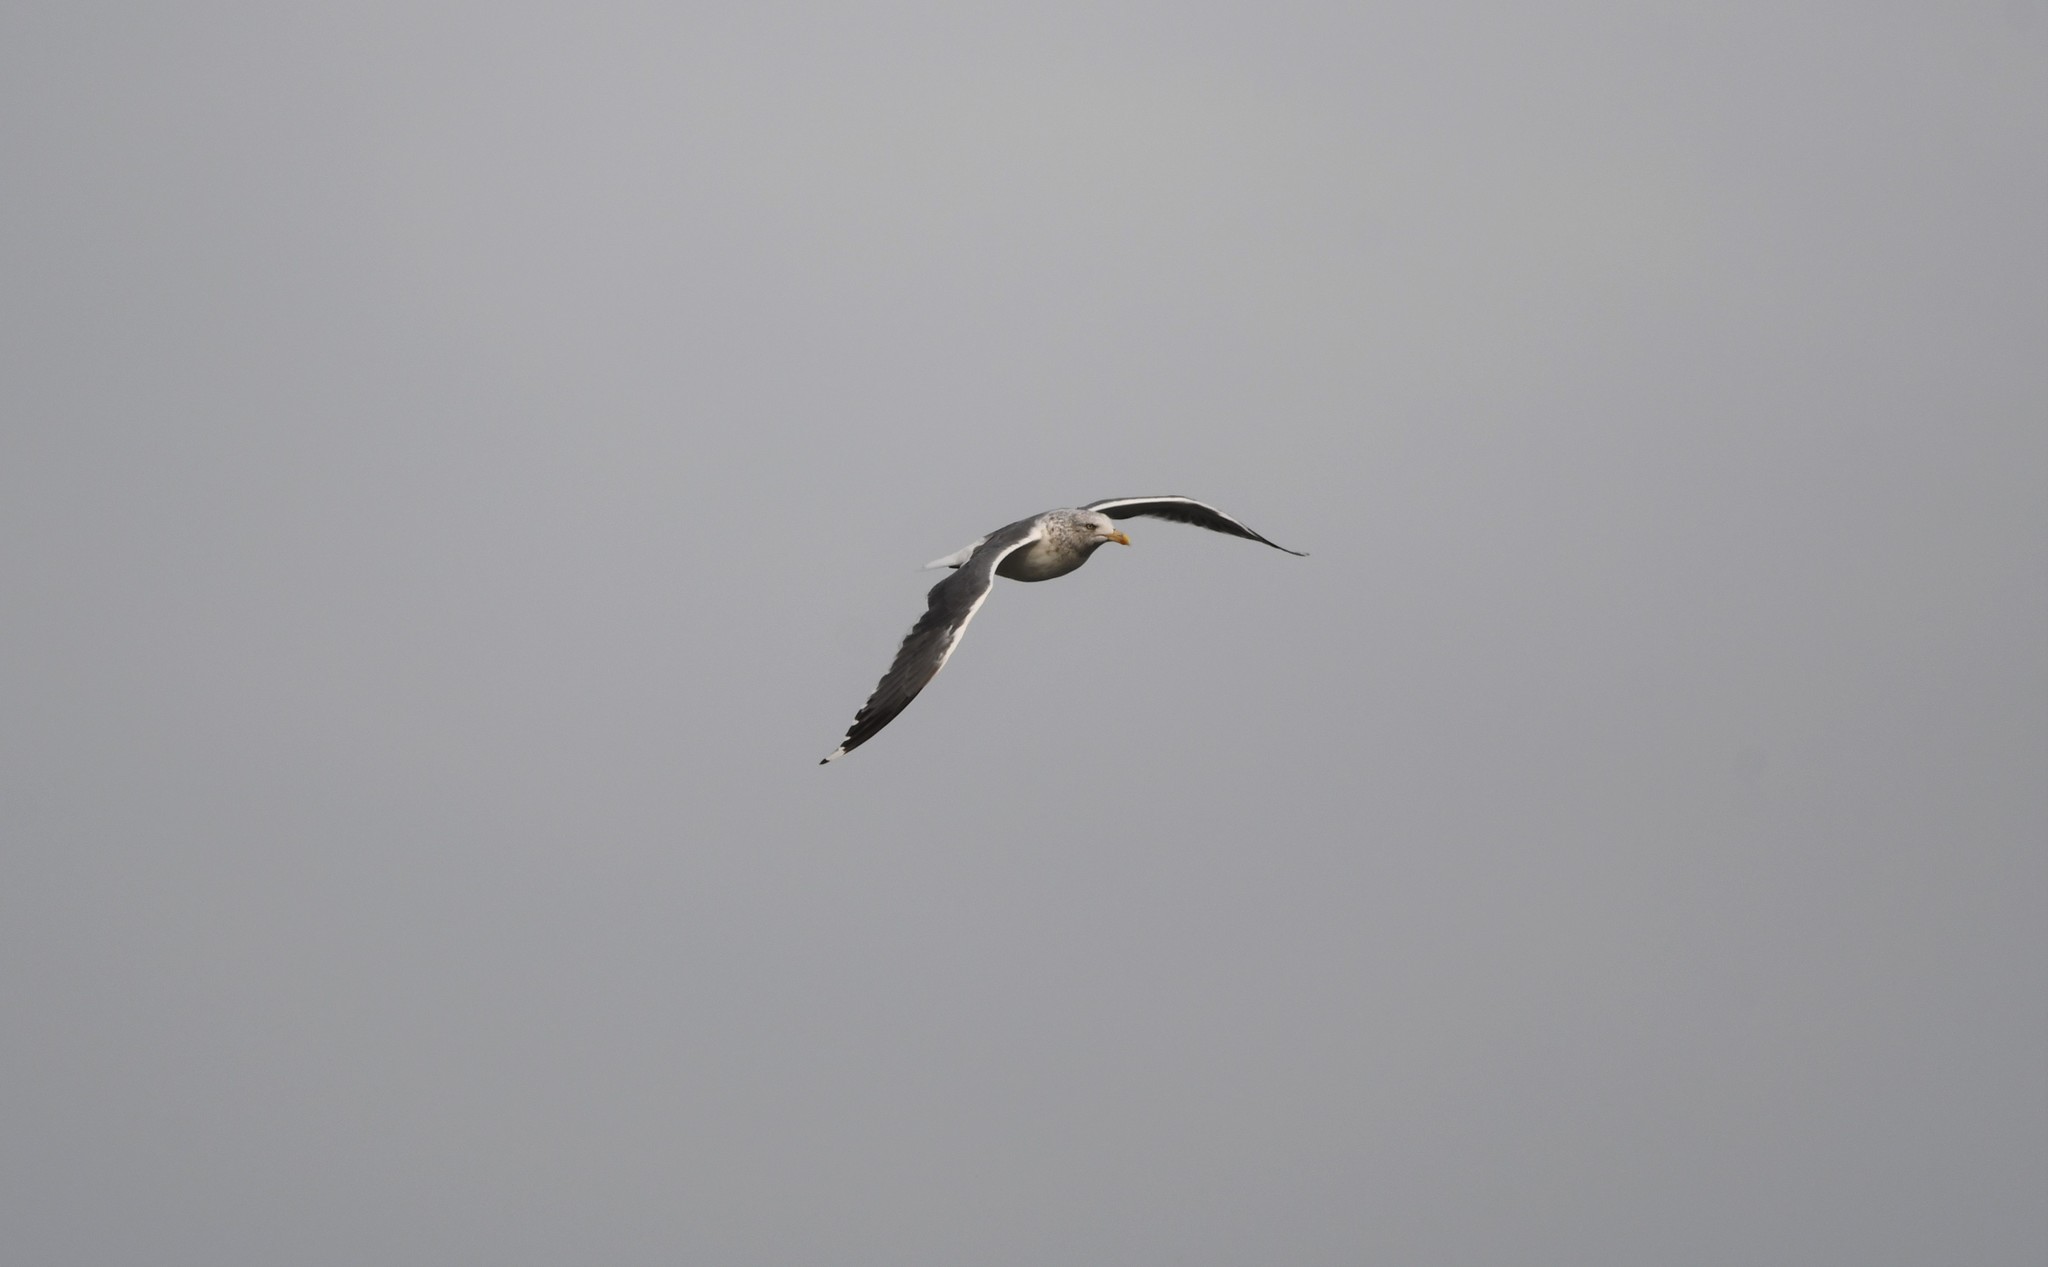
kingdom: Animalia
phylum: Chordata
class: Aves
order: Charadriiformes
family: Laridae
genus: Larus
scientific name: Larus fuscus
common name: Lesser black-backed gull
